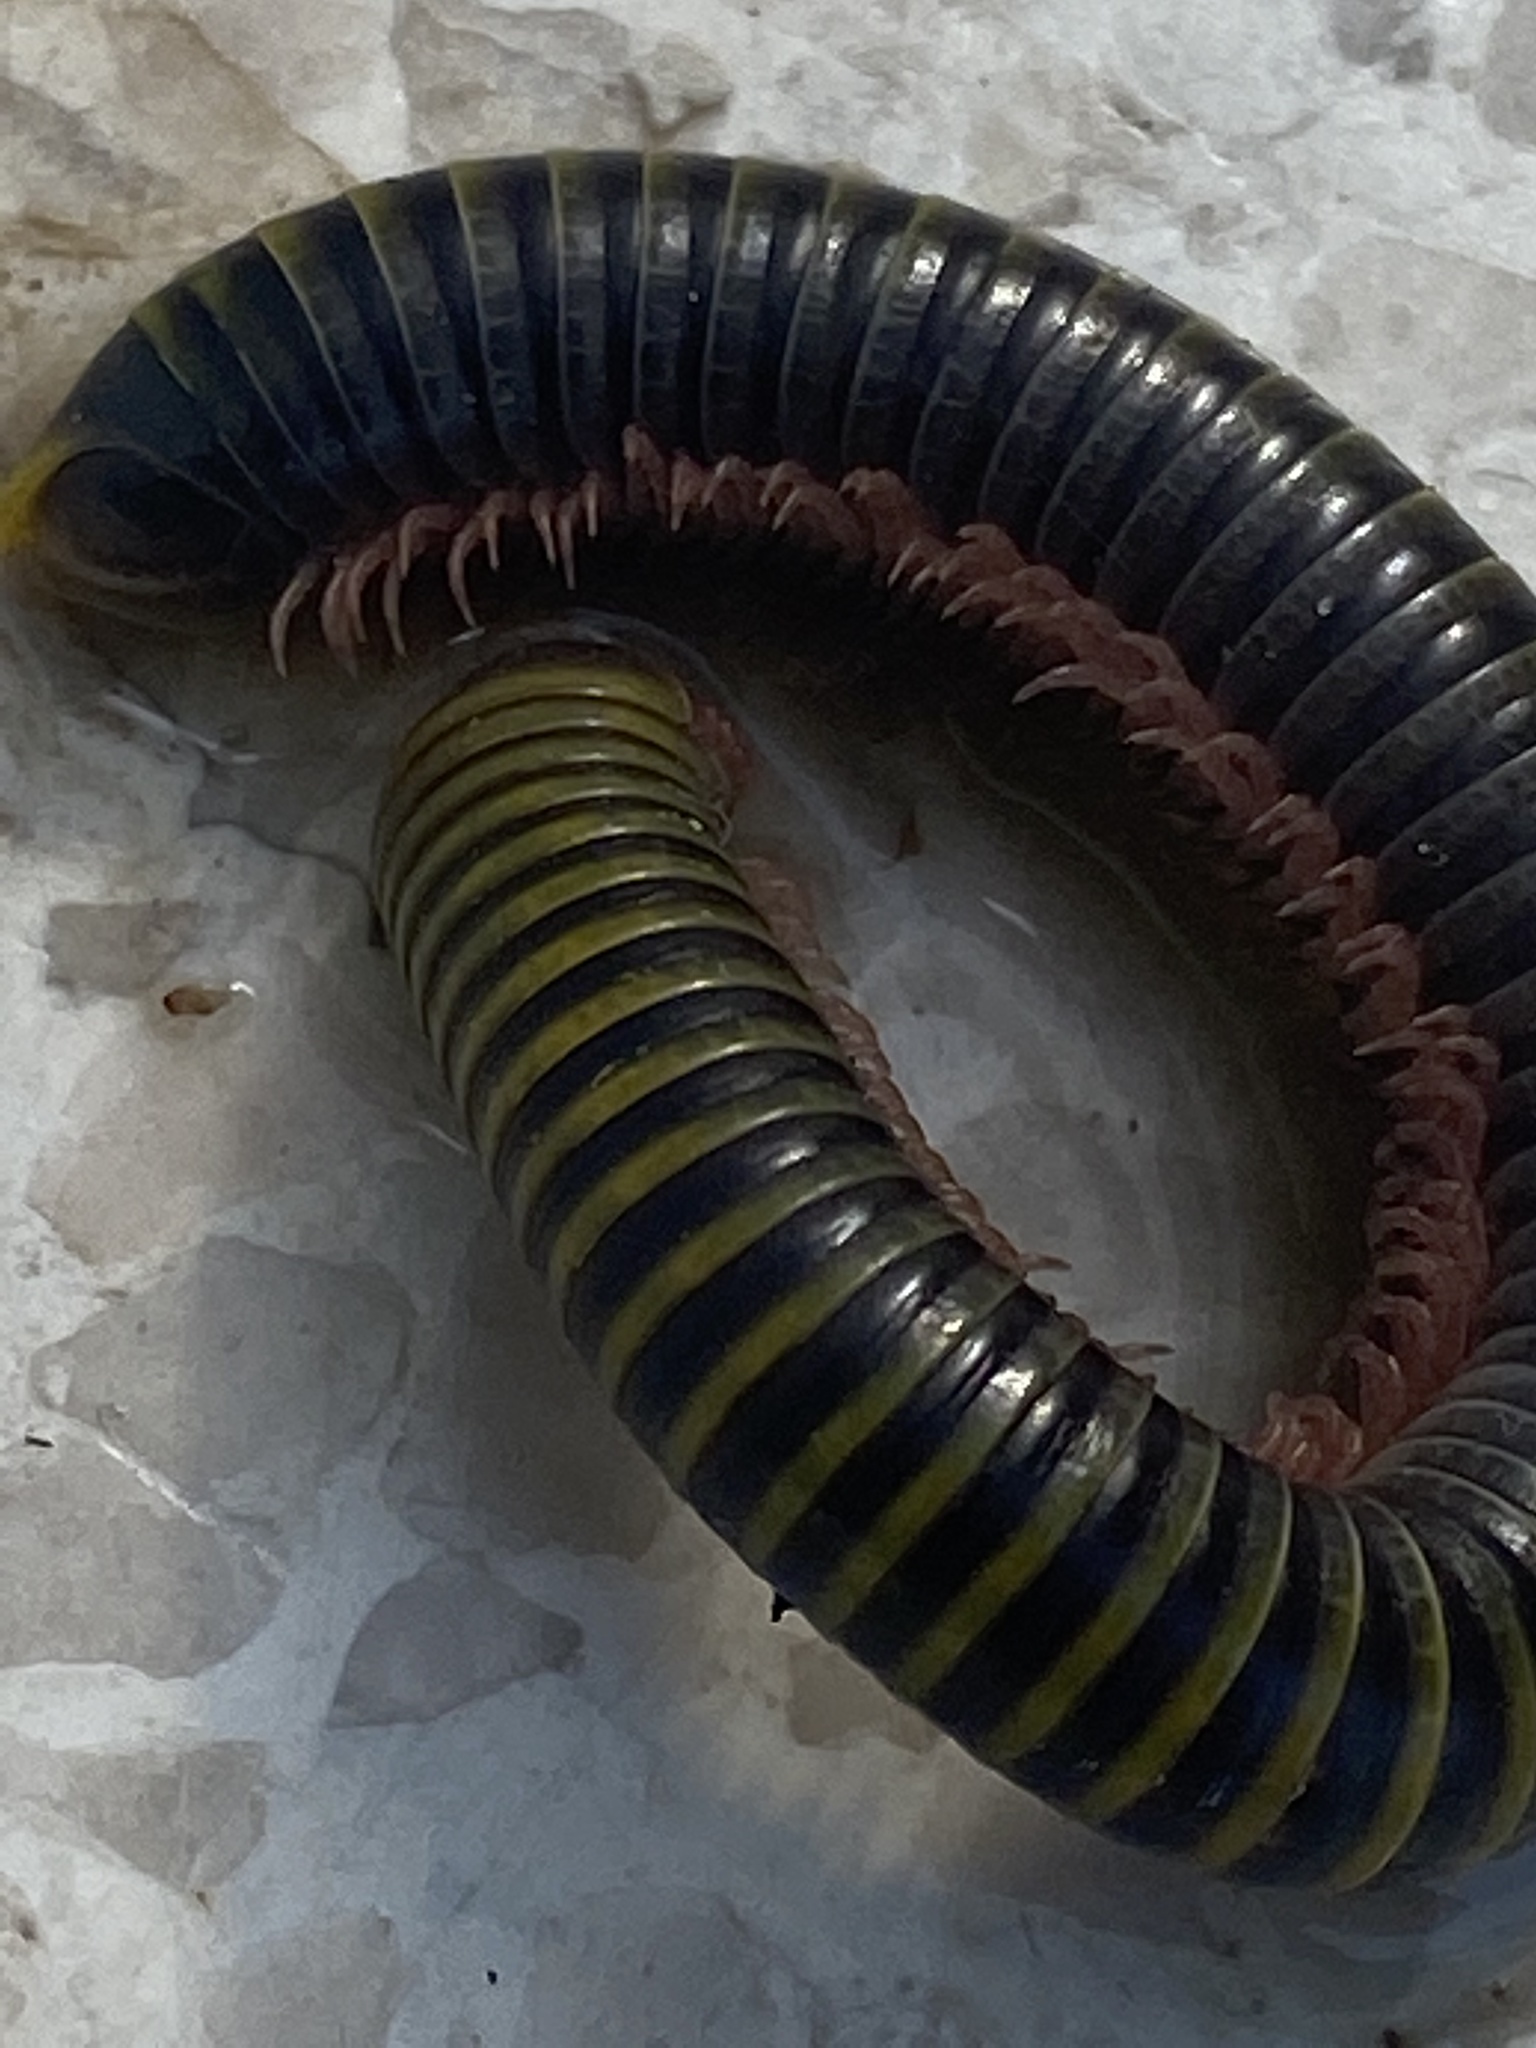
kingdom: Animalia
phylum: Arthropoda
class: Diplopoda
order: Spirobolida
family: Rhinocricidae
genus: Anadenobolus
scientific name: Anadenobolus monilicornis
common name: Caribbean millipede
